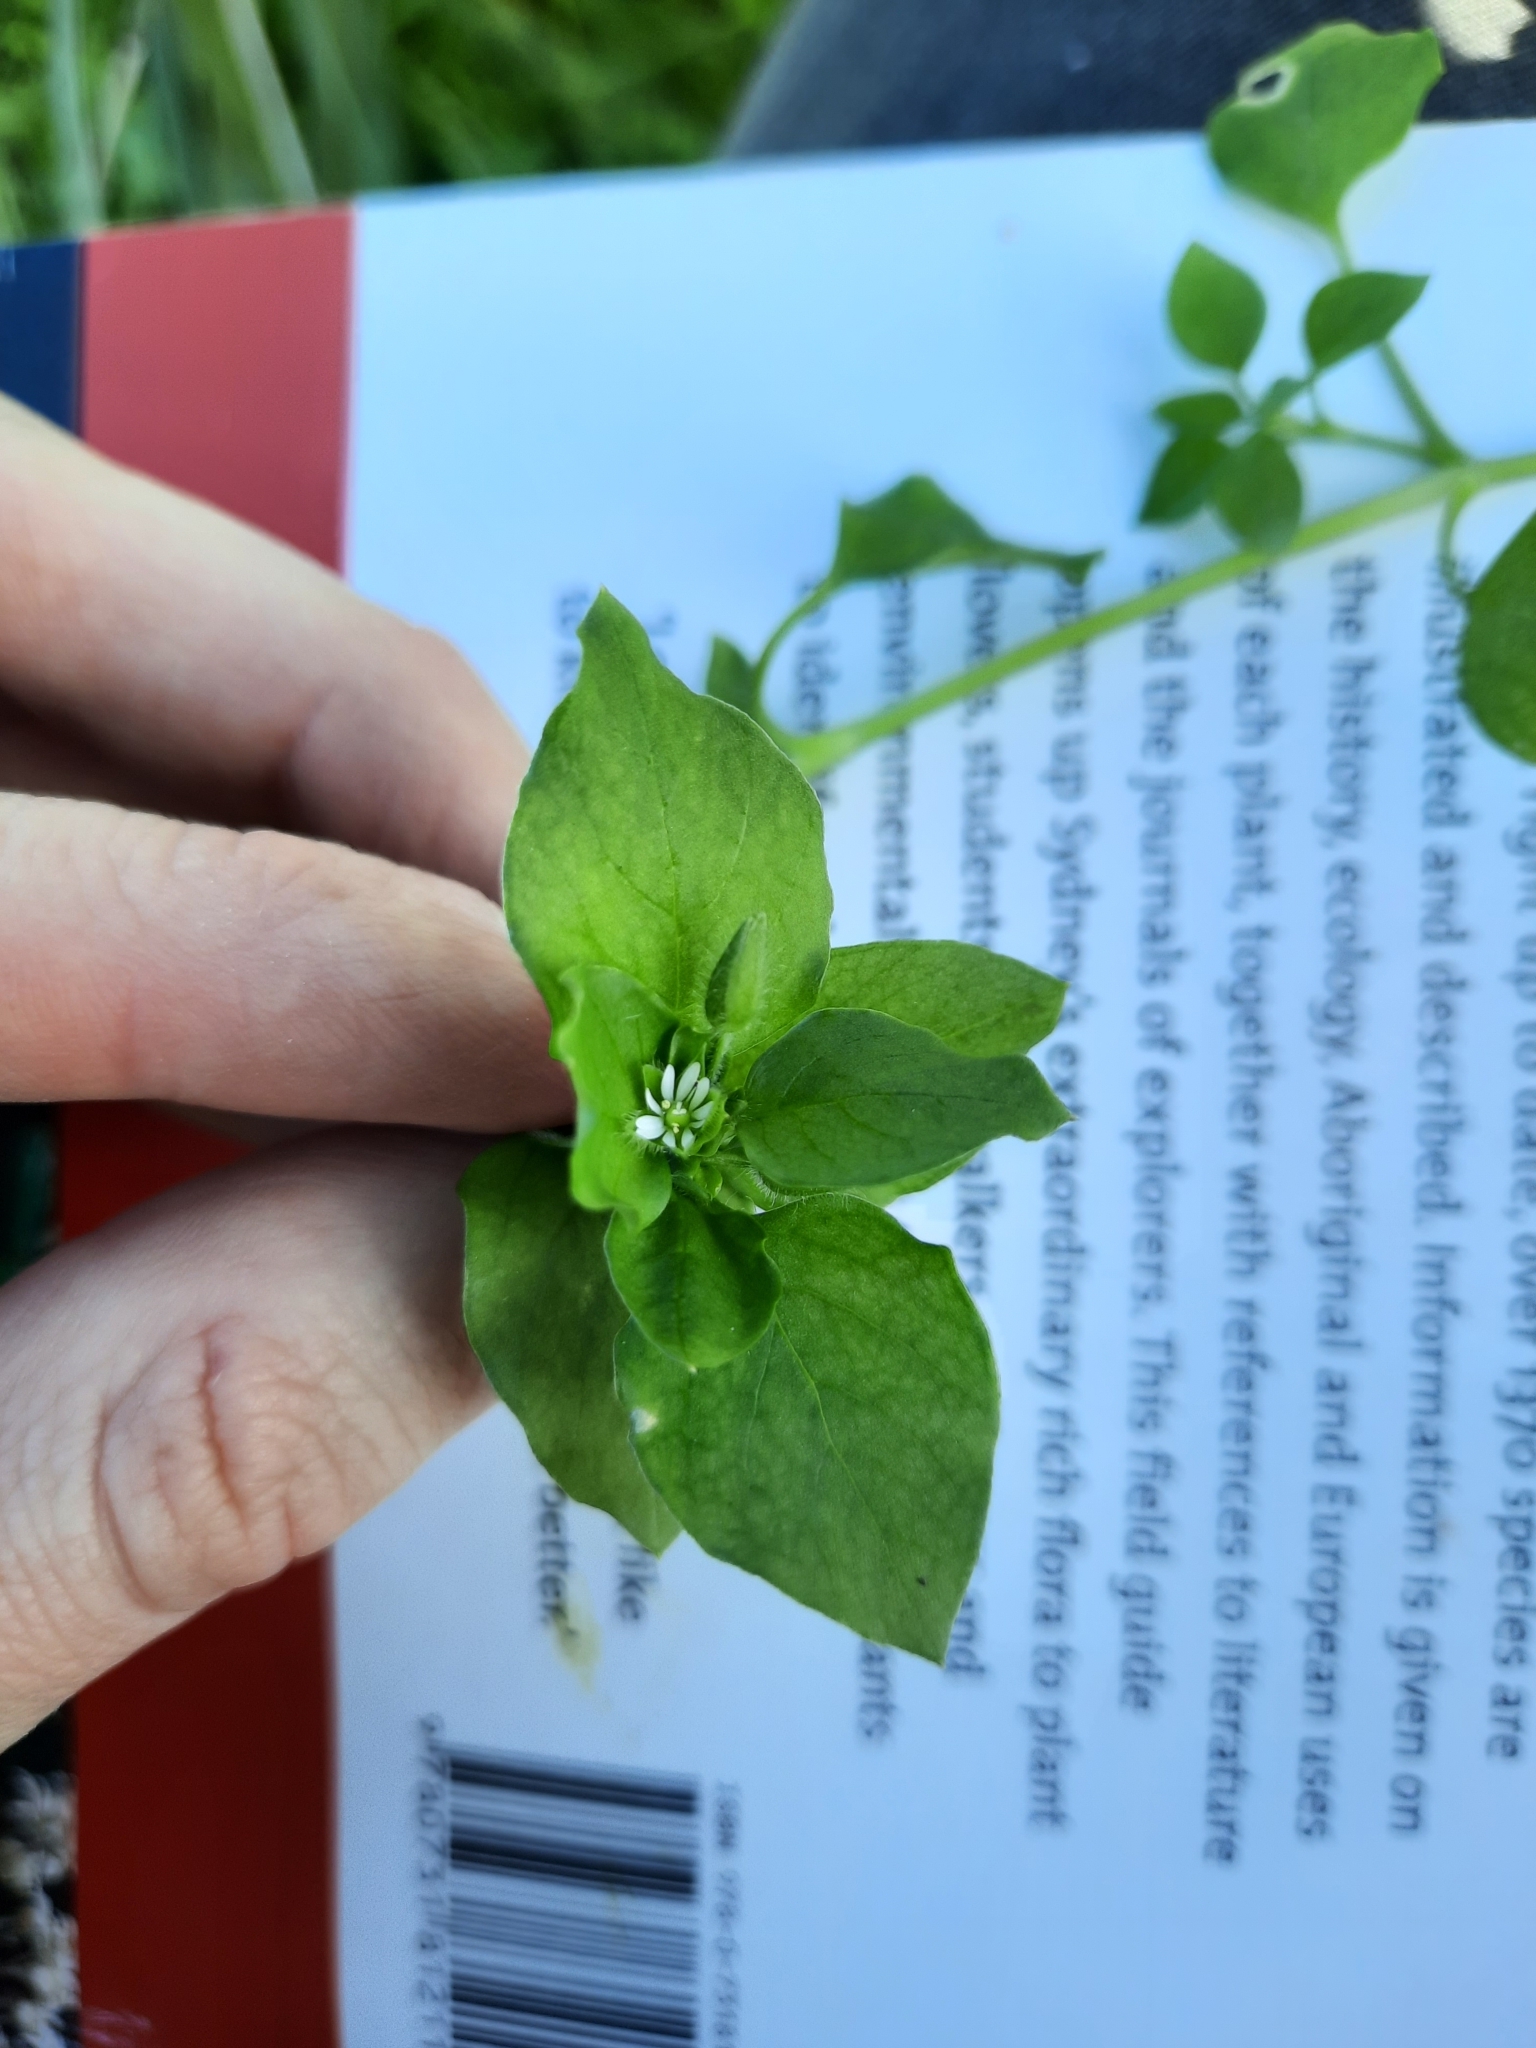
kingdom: Plantae
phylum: Tracheophyta
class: Magnoliopsida
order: Caryophyllales
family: Caryophyllaceae
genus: Stellaria
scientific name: Stellaria media
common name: Common chickweed
